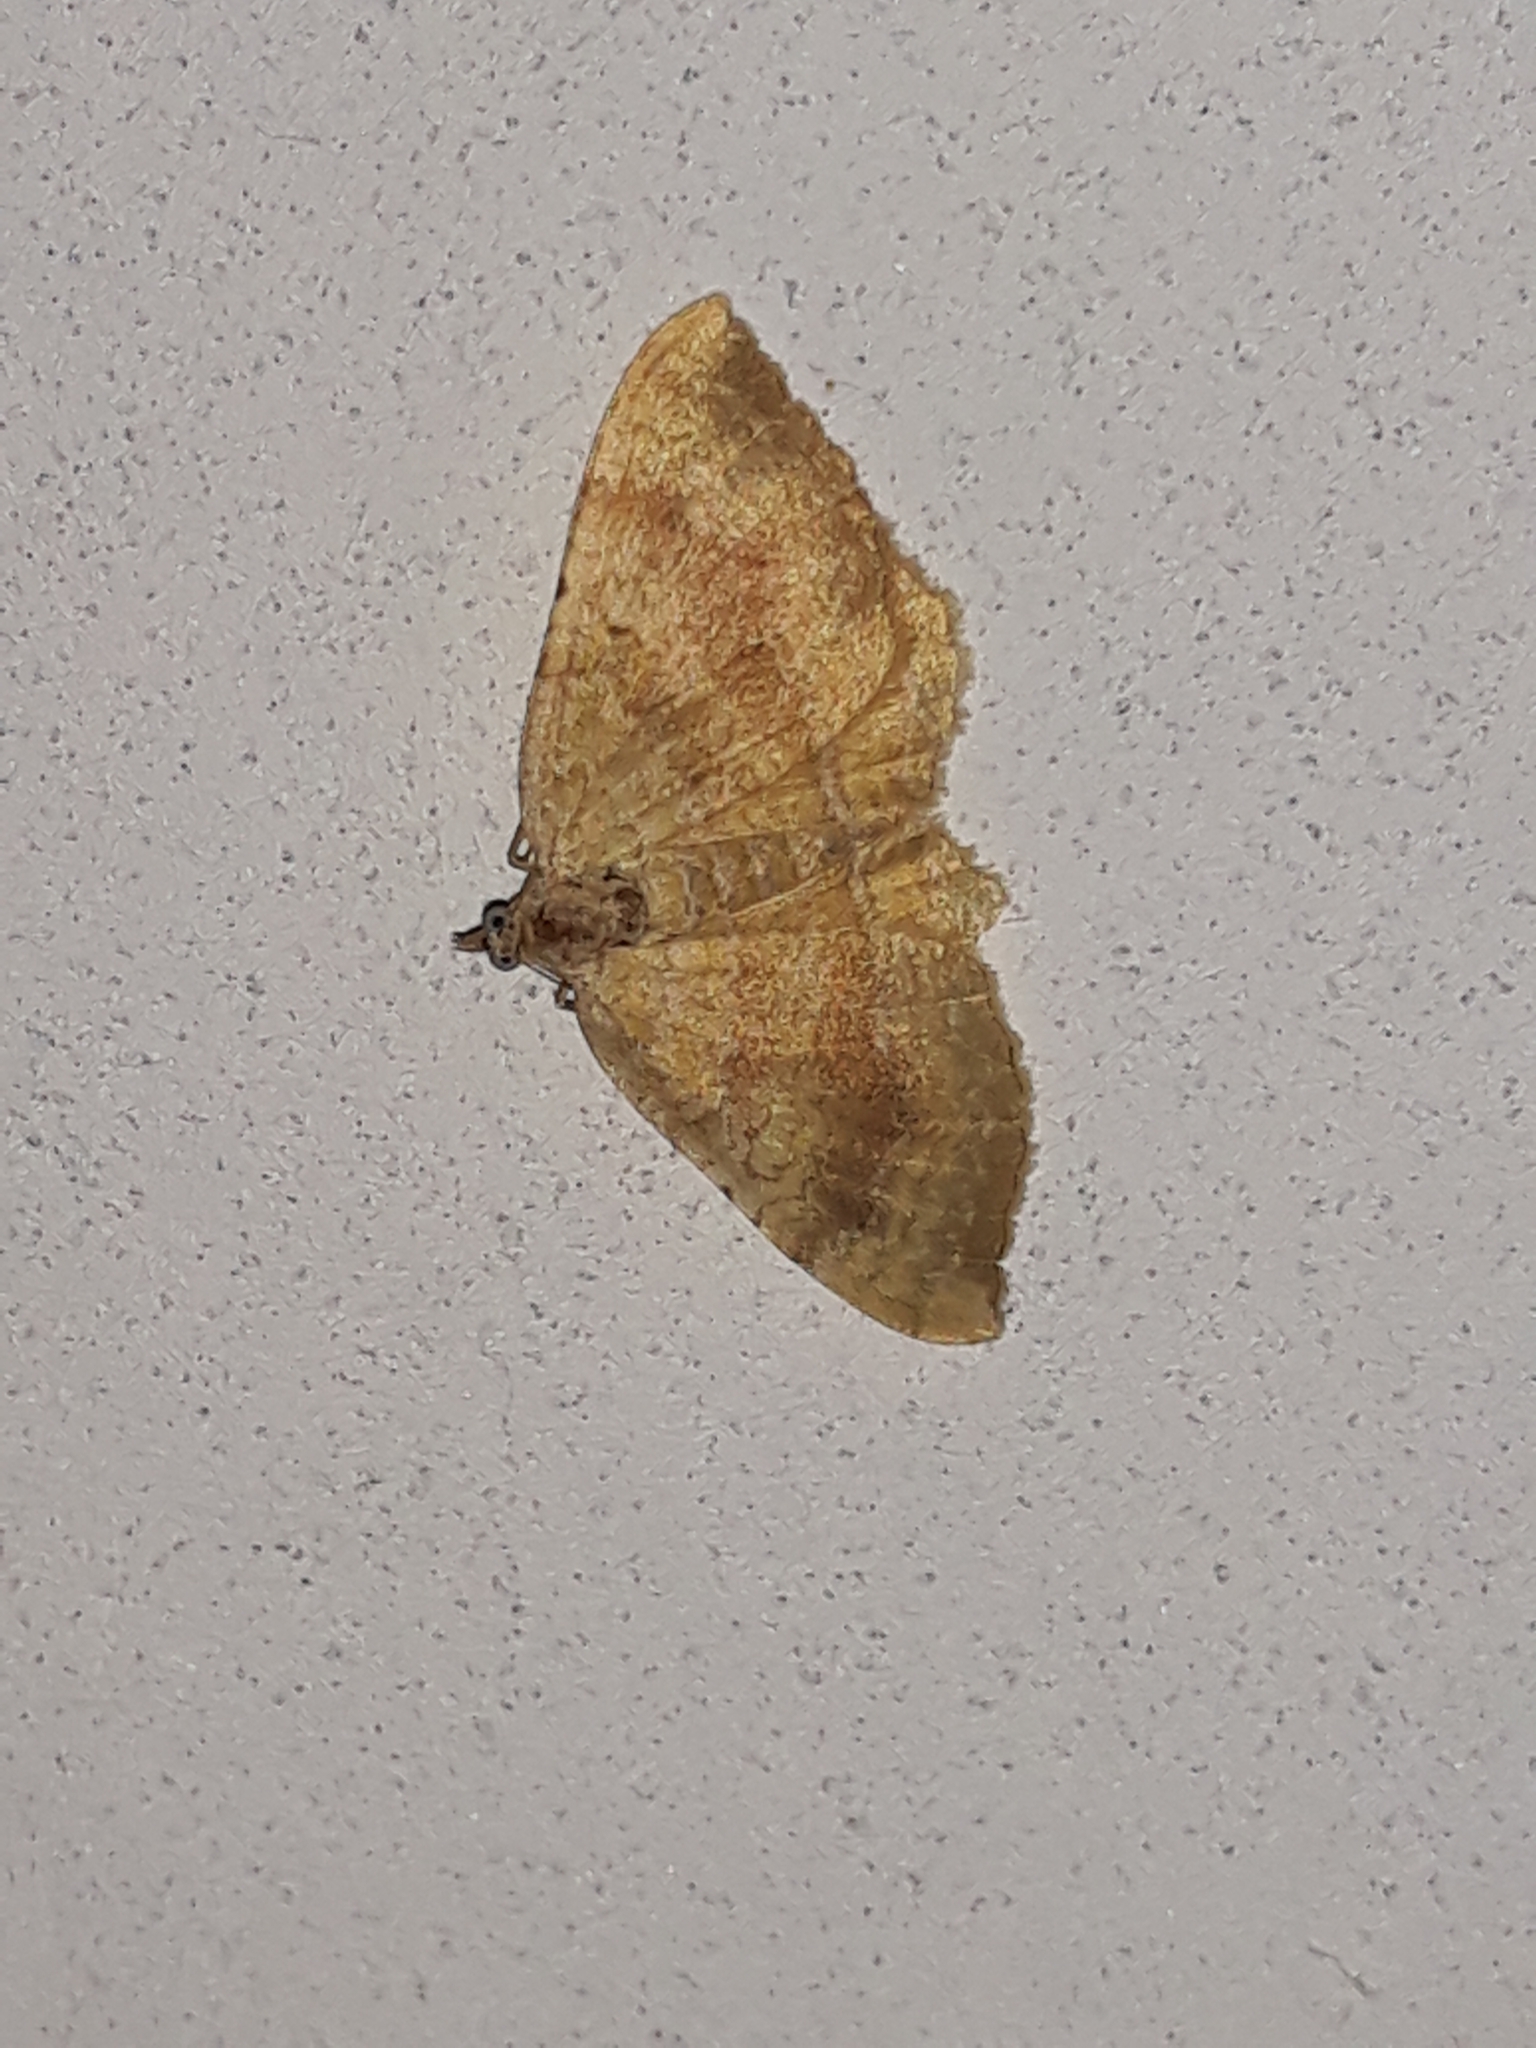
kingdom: Animalia
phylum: Arthropoda
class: Insecta
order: Lepidoptera
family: Geometridae
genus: Camptogramma
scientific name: Camptogramma bilineata
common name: Yellow shell
